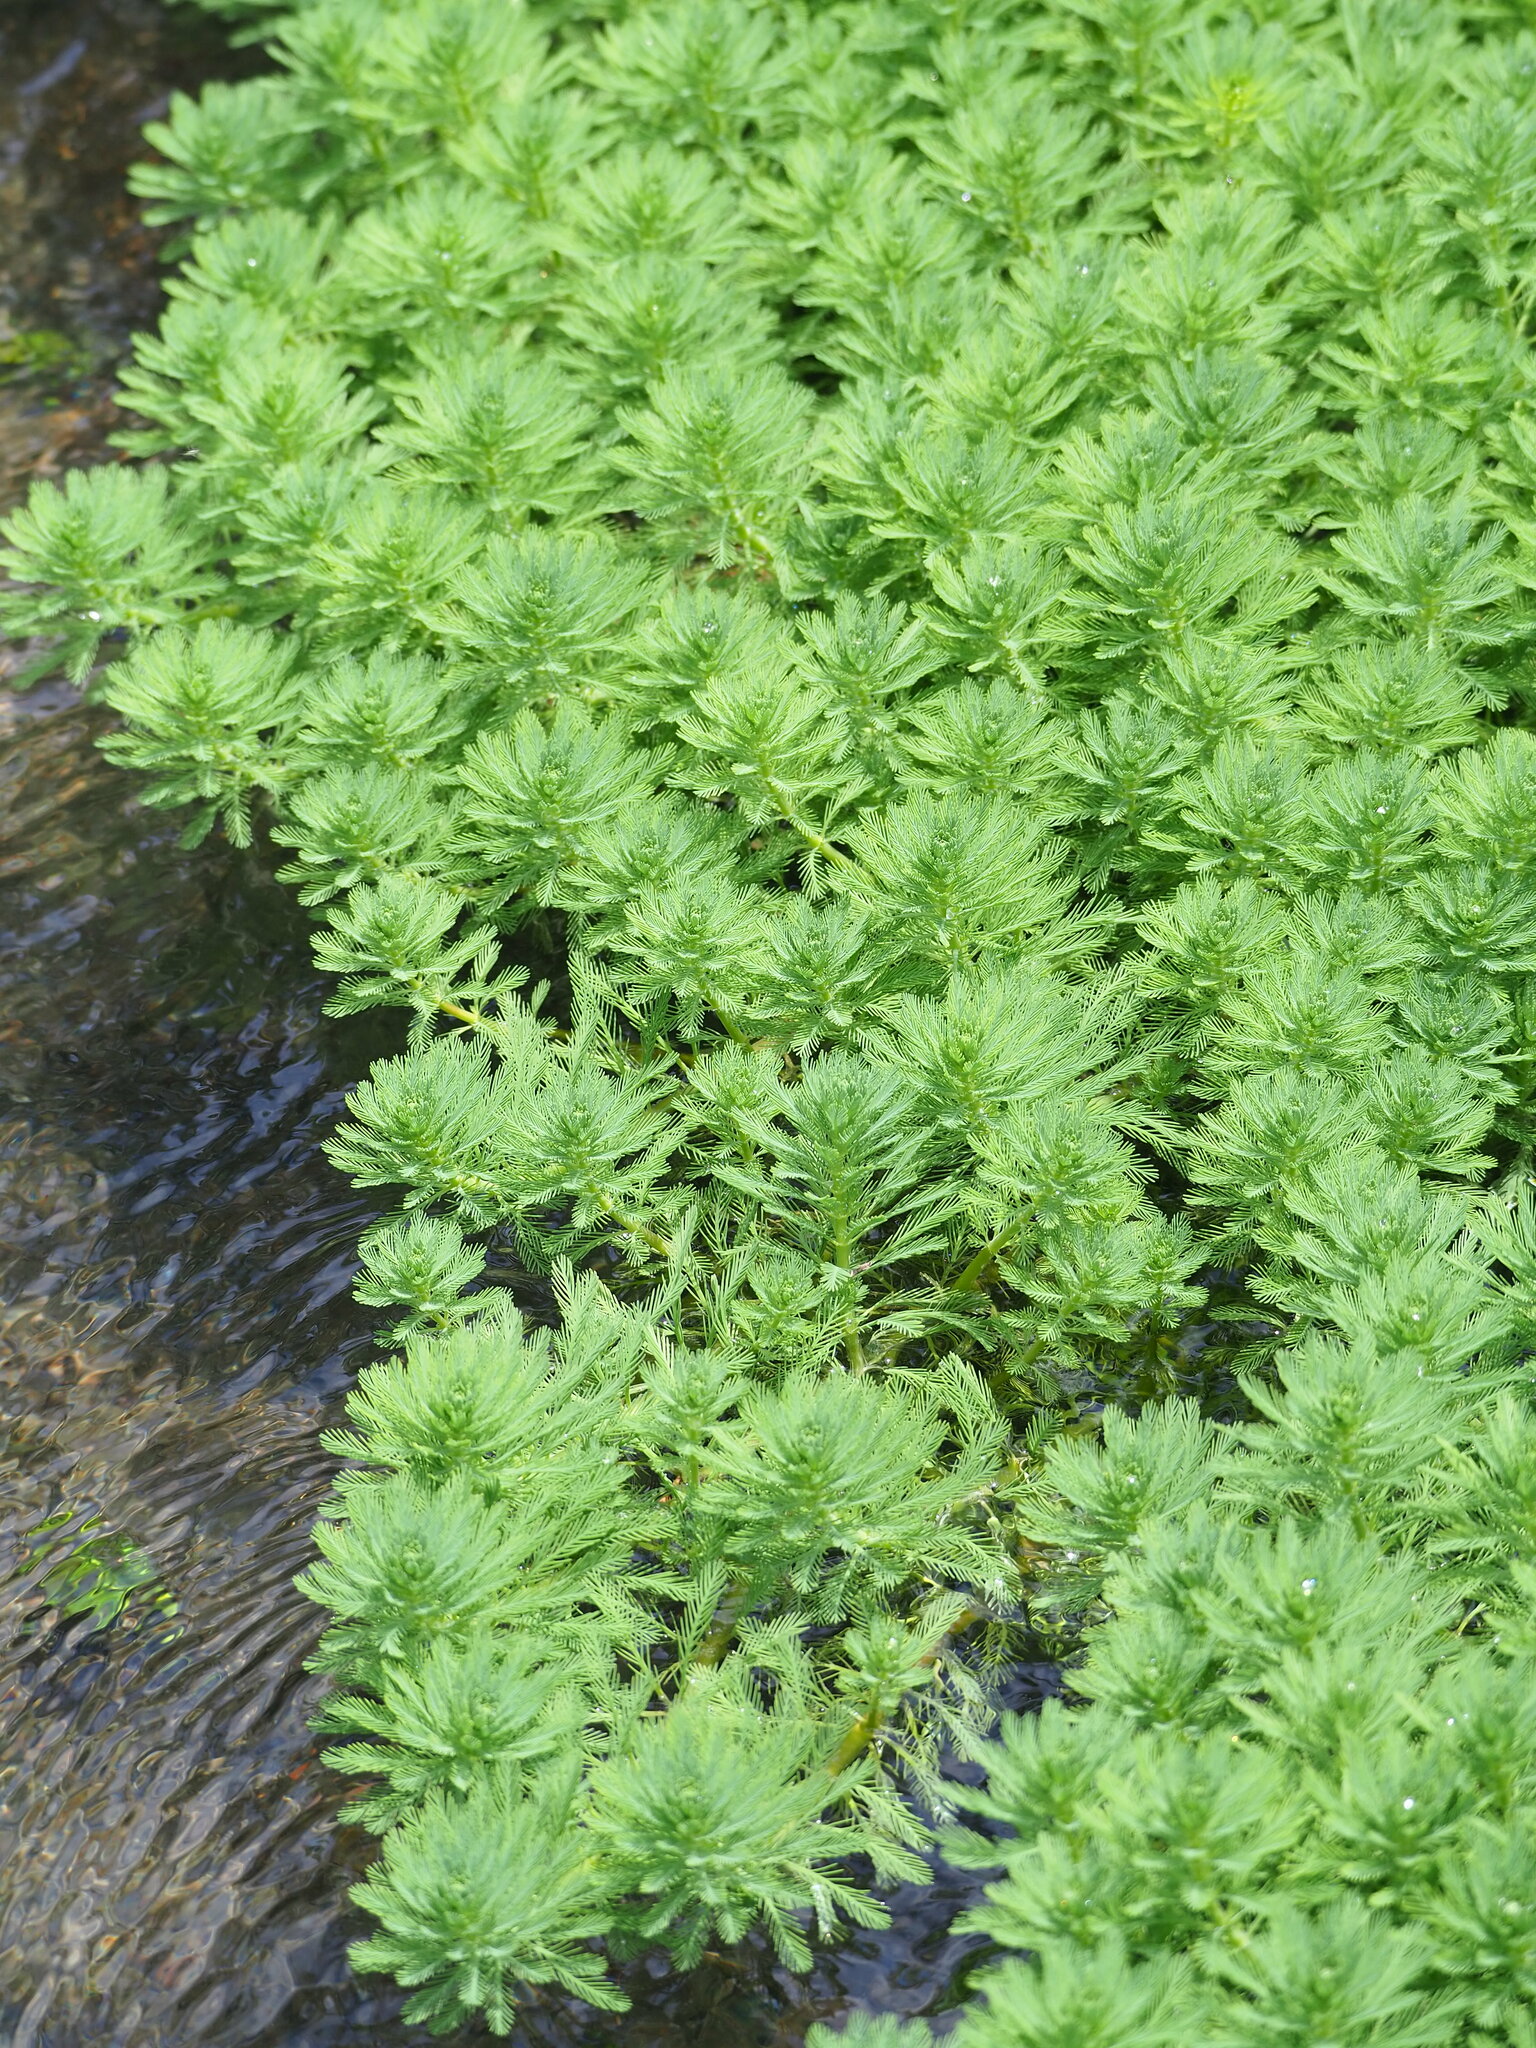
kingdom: Plantae
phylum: Tracheophyta
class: Magnoliopsida
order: Saxifragales
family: Haloragaceae
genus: Myriophyllum
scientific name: Myriophyllum aquaticum
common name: Parrot's feather
